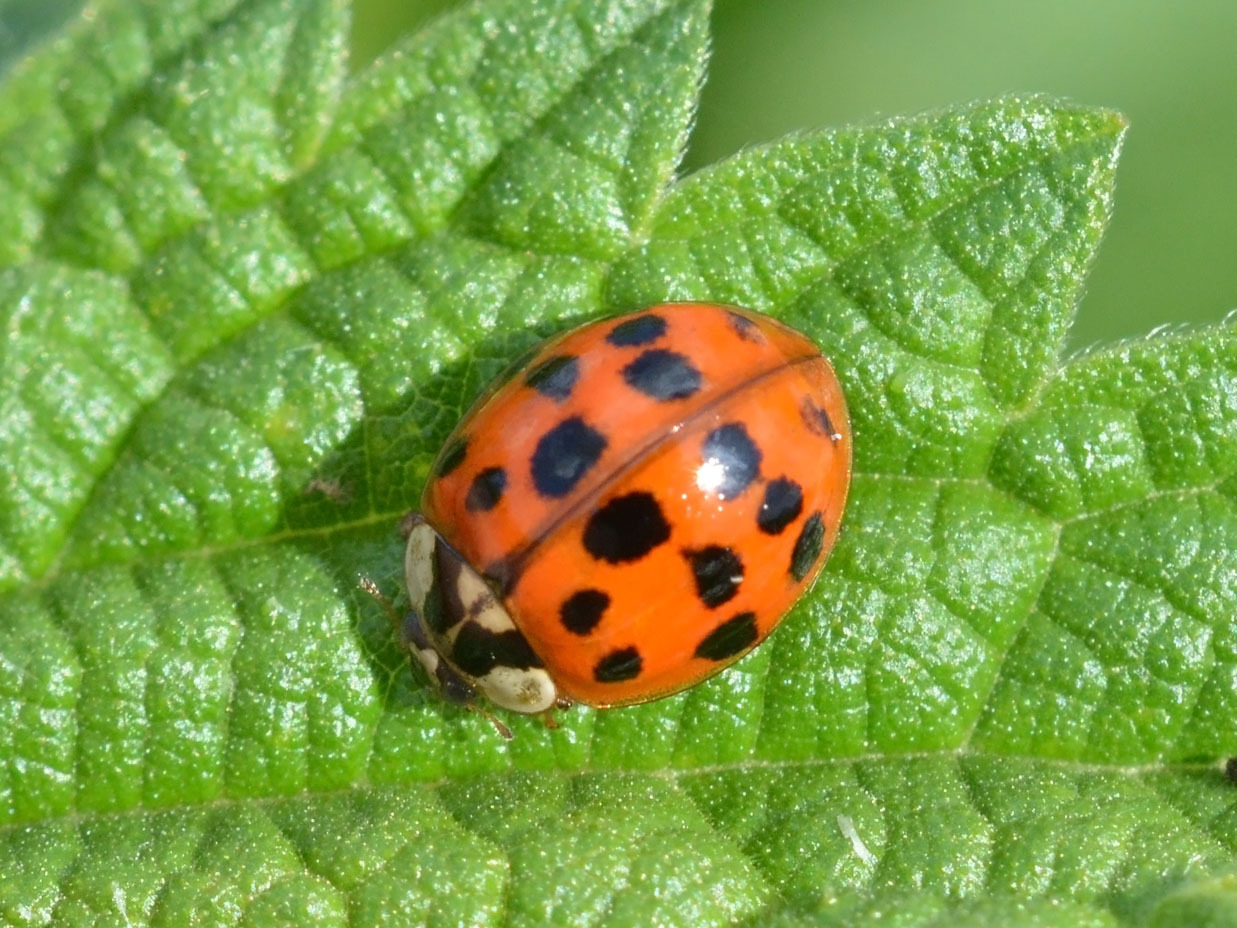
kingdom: Animalia
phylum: Arthropoda
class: Insecta
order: Coleoptera
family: Coccinellidae
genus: Harmonia
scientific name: Harmonia axyridis
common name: Harlequin ladybird
